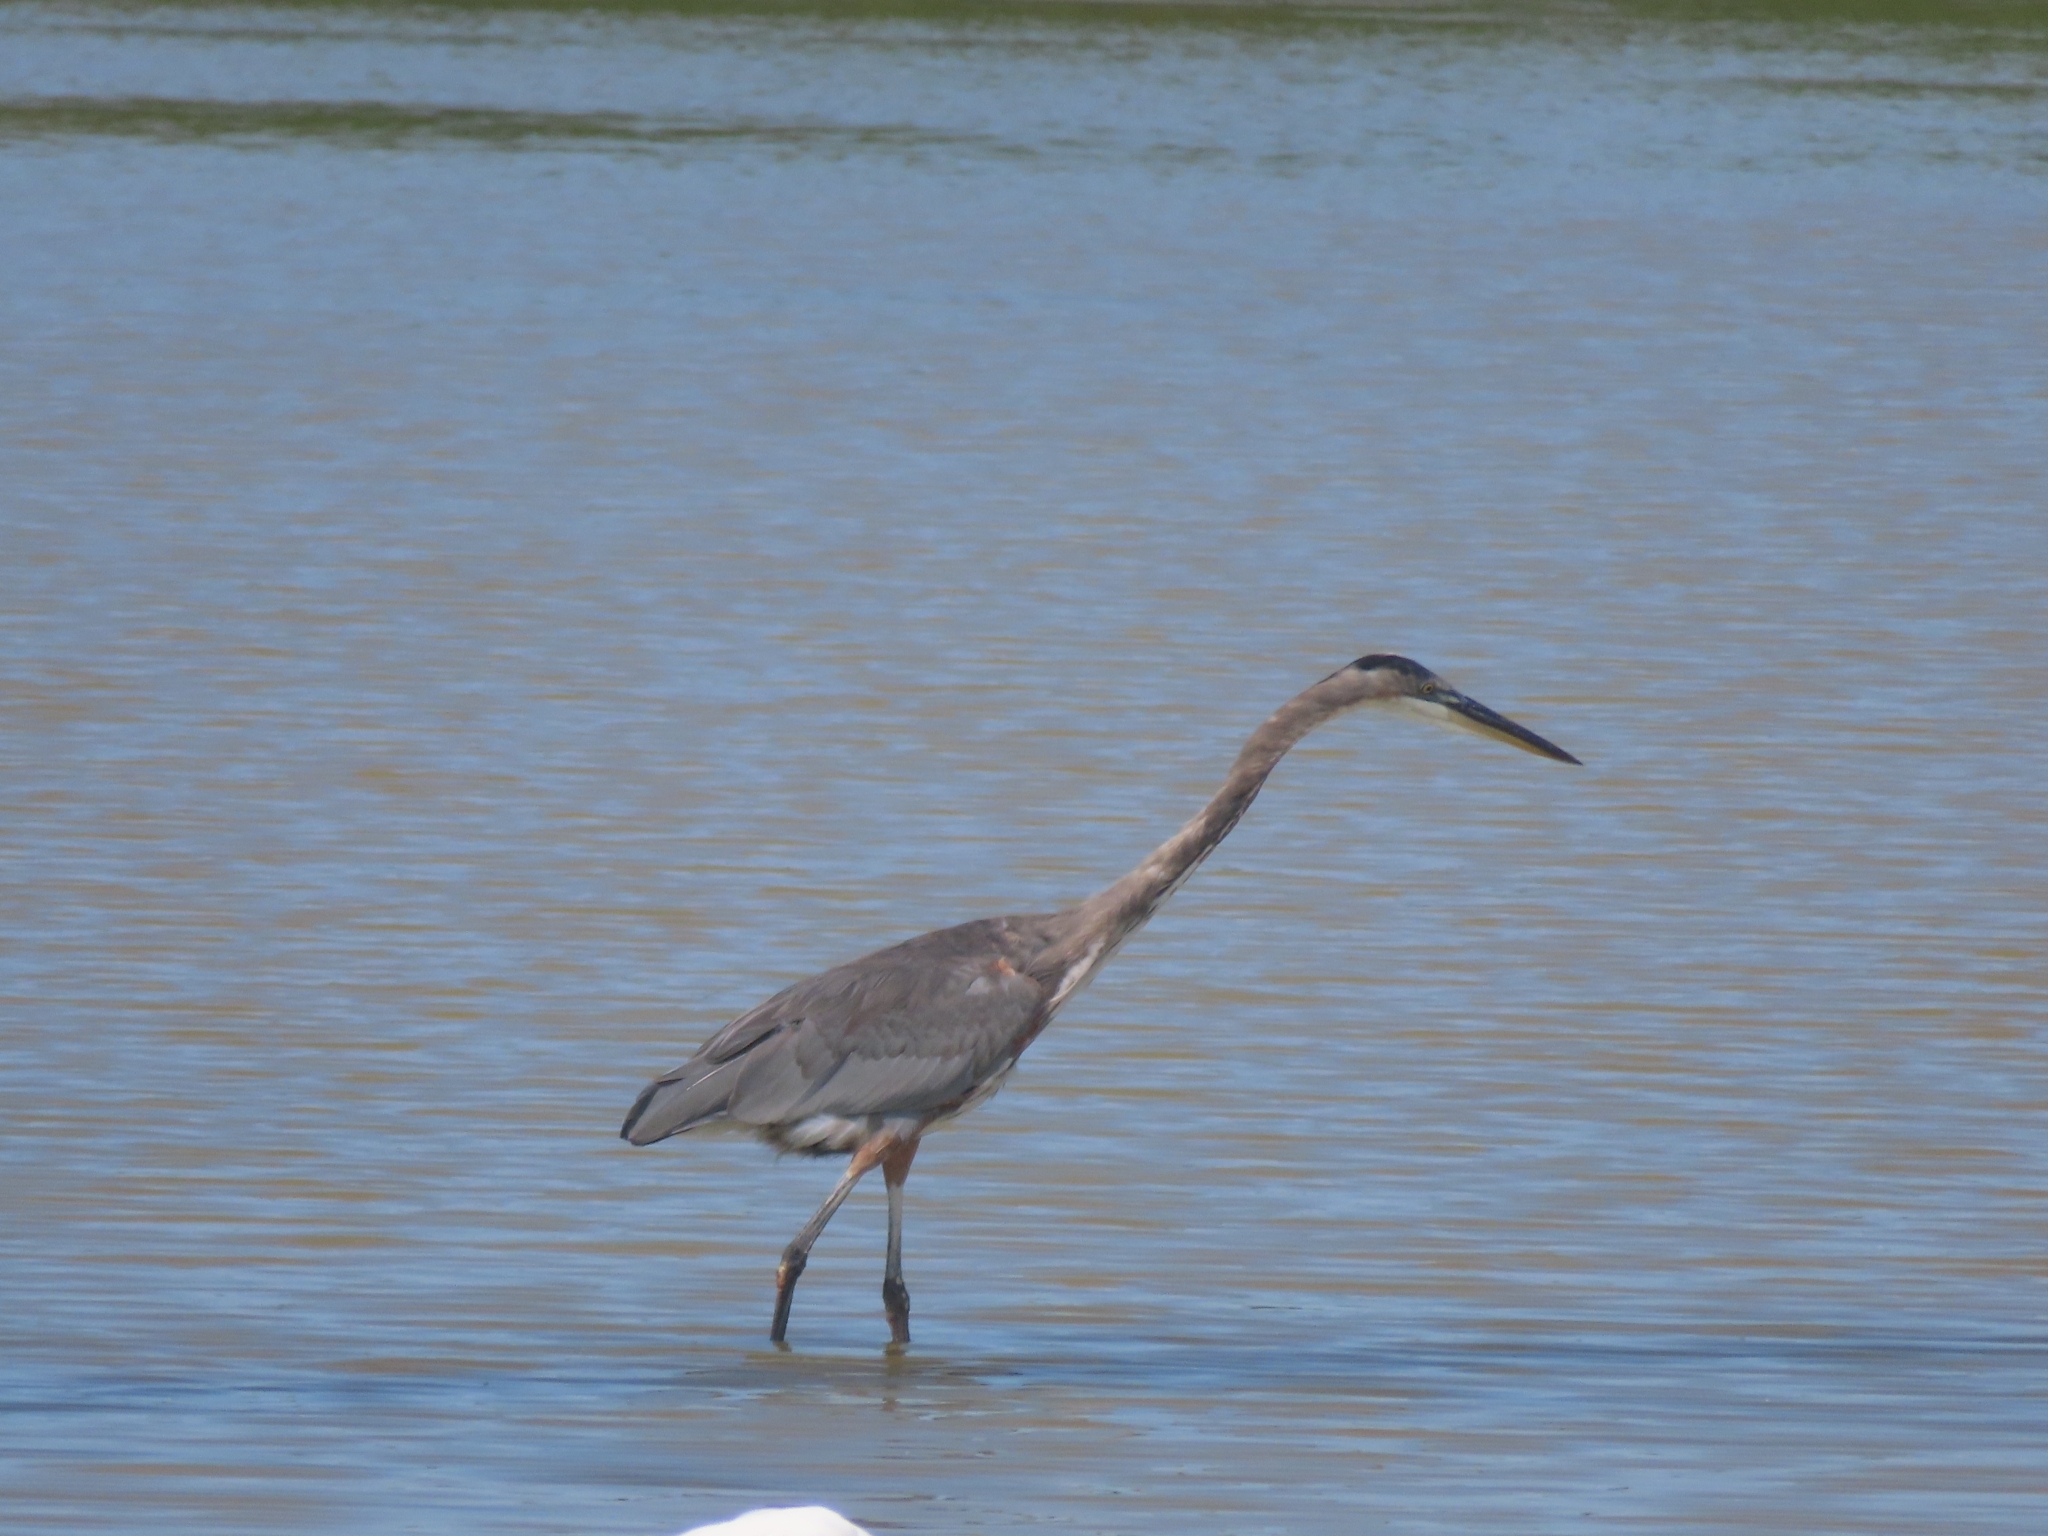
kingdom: Animalia
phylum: Chordata
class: Aves
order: Pelecaniformes
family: Ardeidae
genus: Ardea
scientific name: Ardea herodias
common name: Great blue heron
